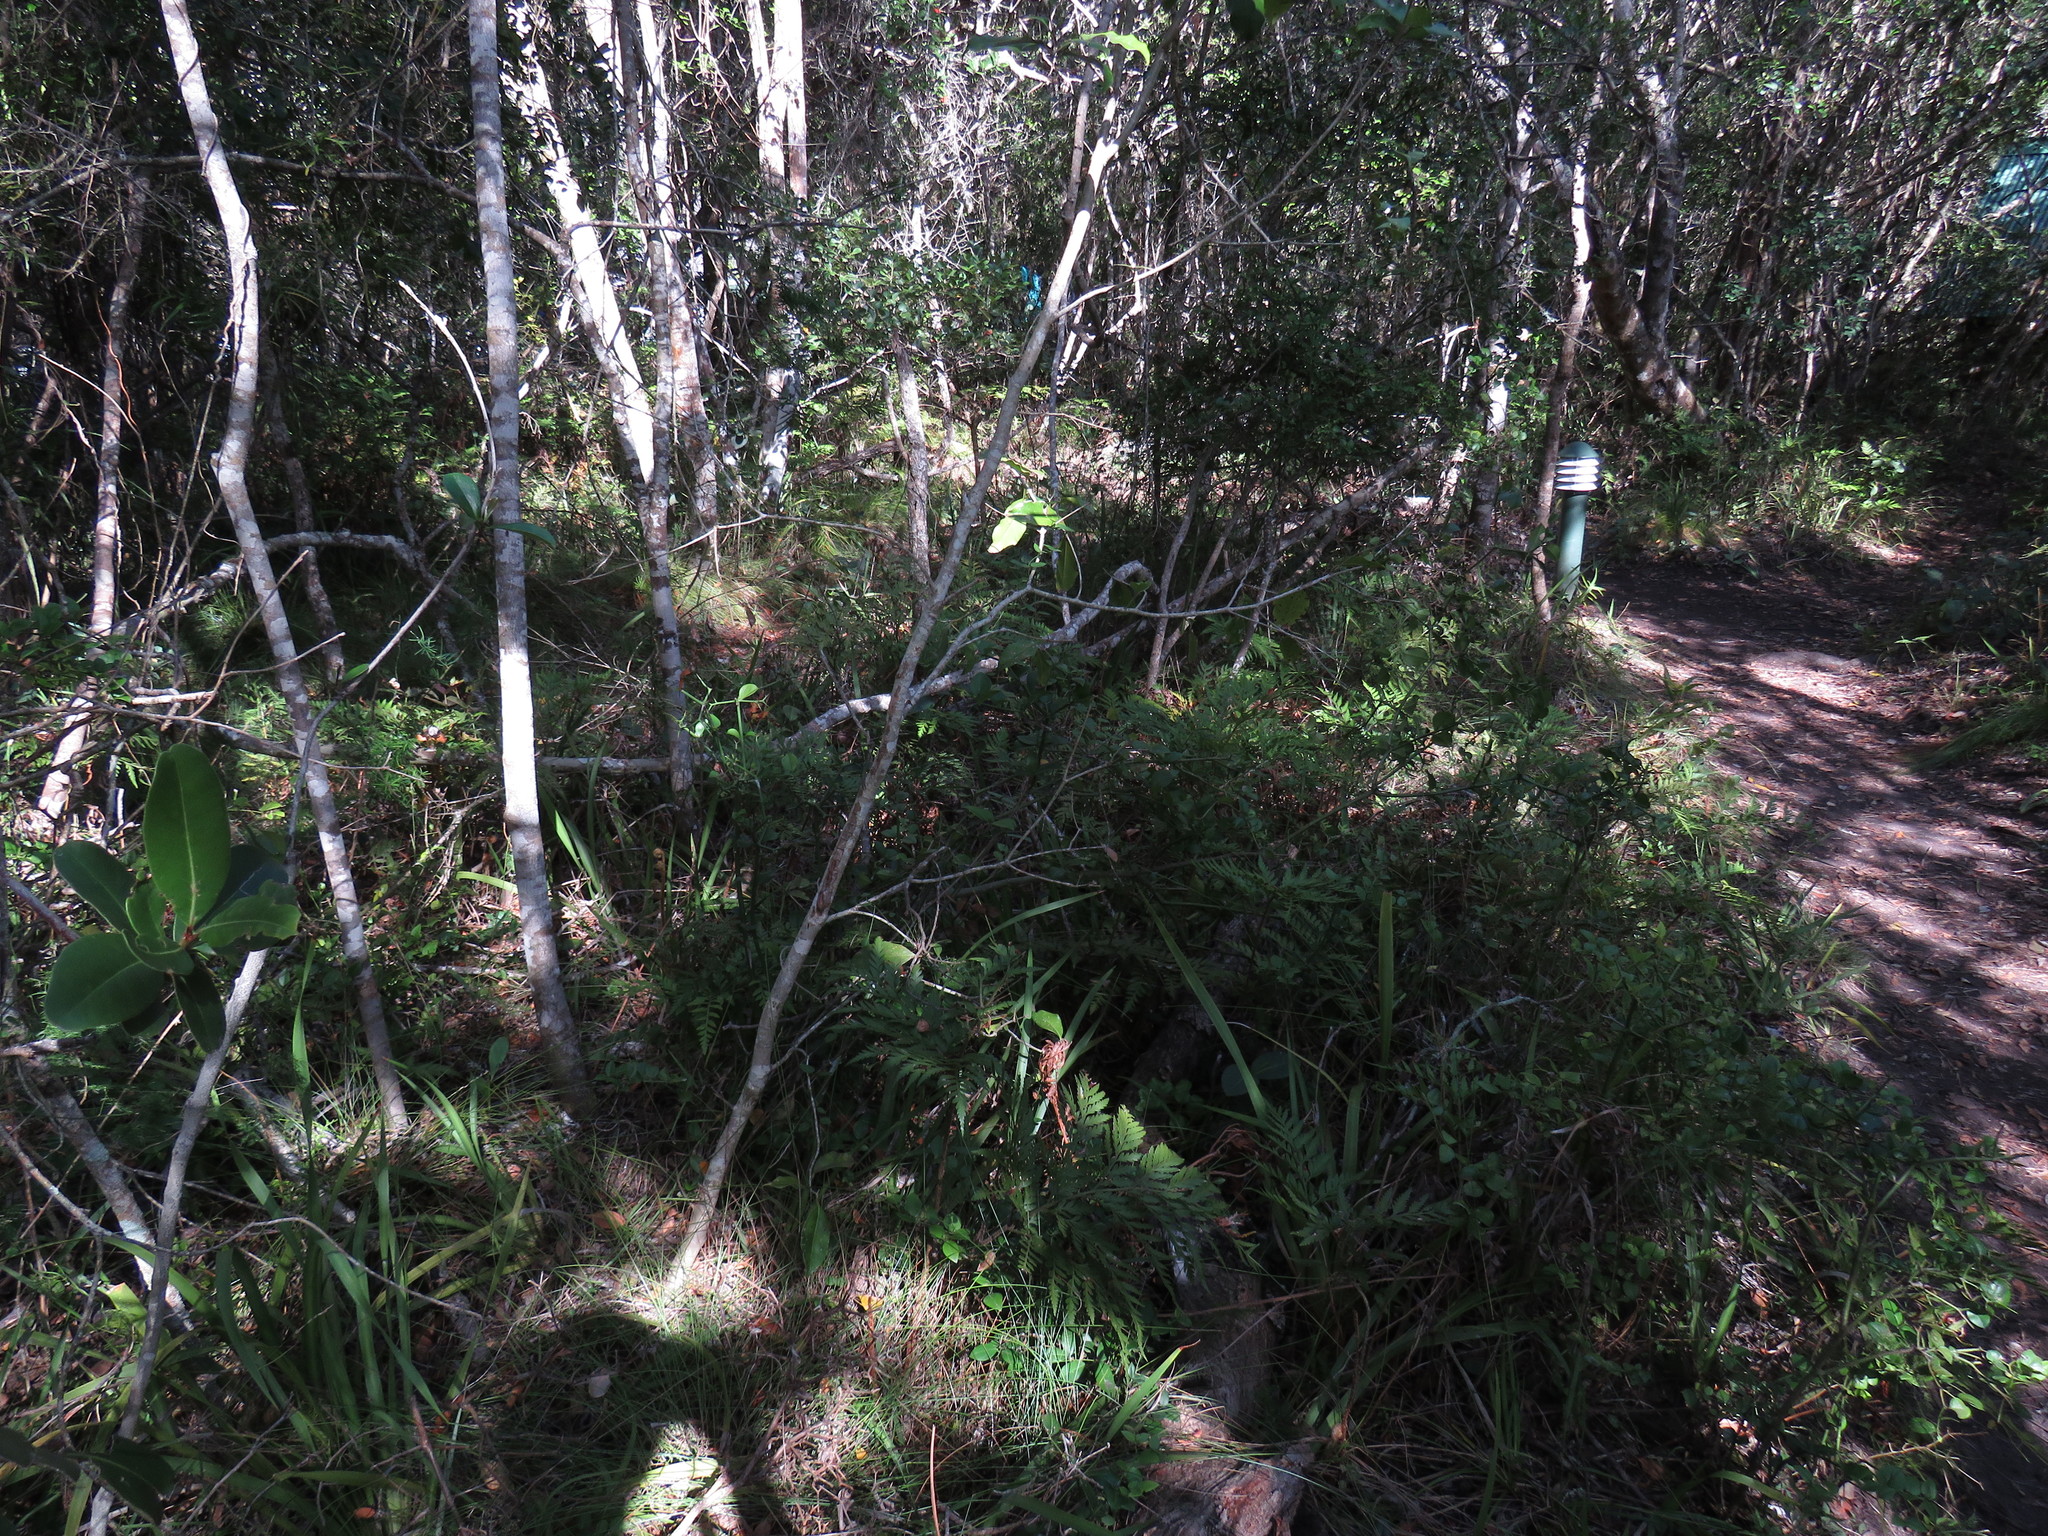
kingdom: Plantae
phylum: Tracheophyta
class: Polypodiopsida
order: Polypodiales
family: Dryopteridaceae
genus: Rumohra
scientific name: Rumohra adiantiformis
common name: Leather fern
